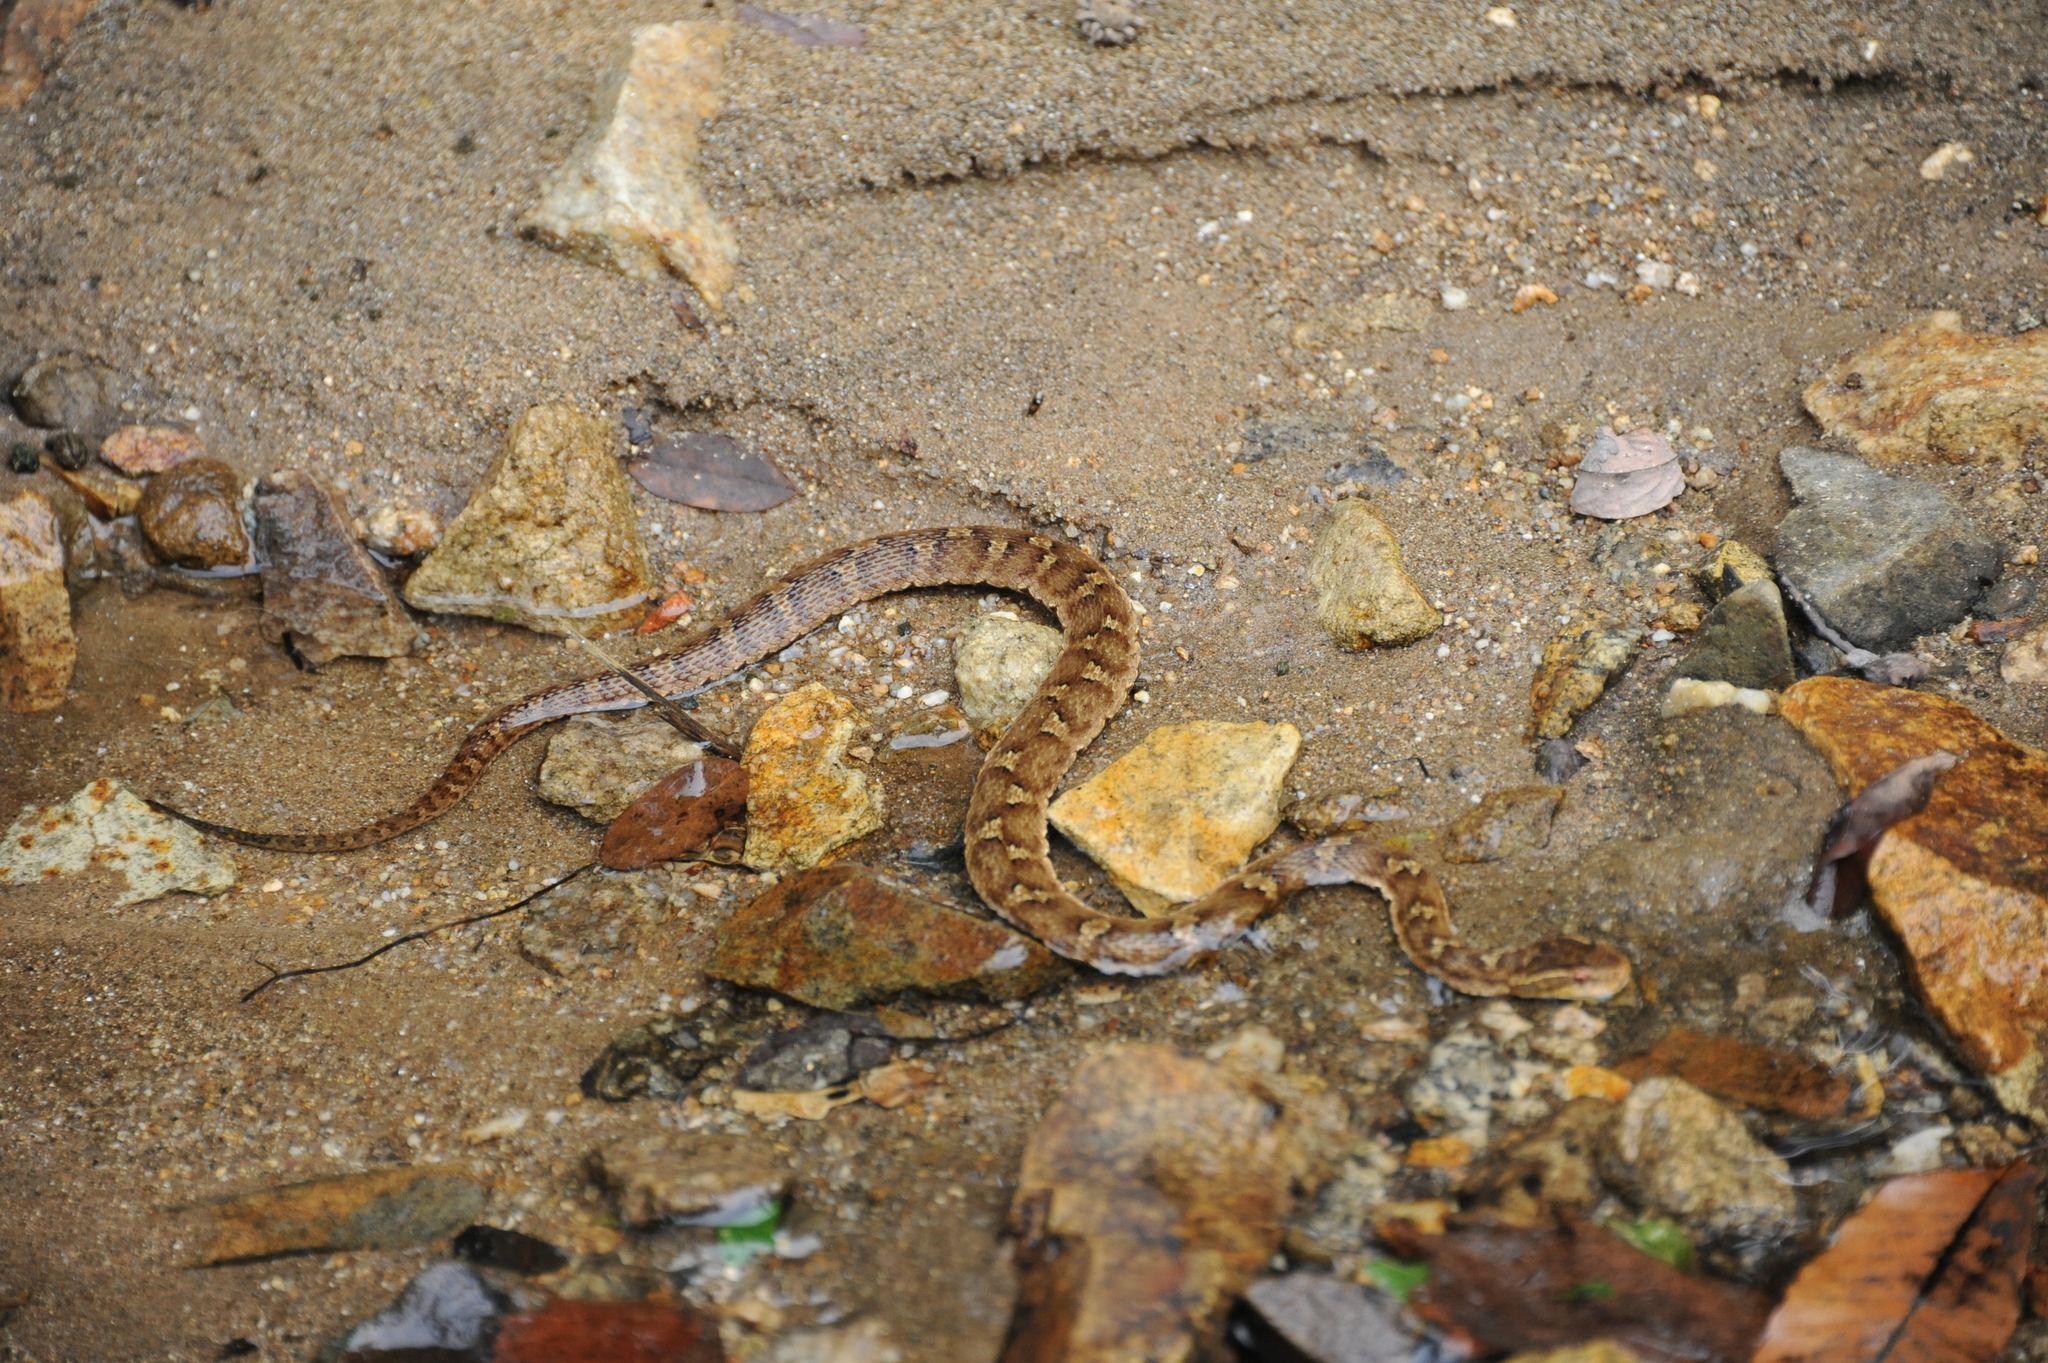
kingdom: Animalia
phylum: Chordata
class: Squamata
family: Viperidae
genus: Gloydius
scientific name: Gloydius ussuriensis
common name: Ussuri mamushi
